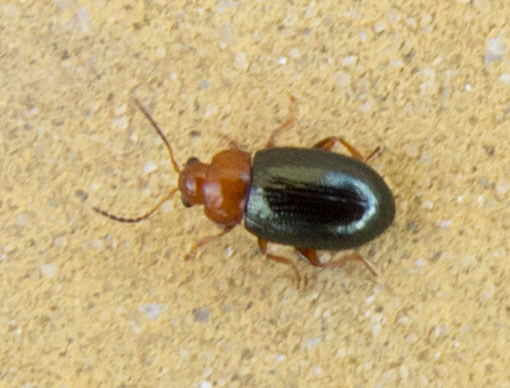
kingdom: Animalia
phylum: Arthropoda
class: Insecta
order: Coleoptera
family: Chrysomelidae
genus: Podagrica
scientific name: Podagrica menetriesii
